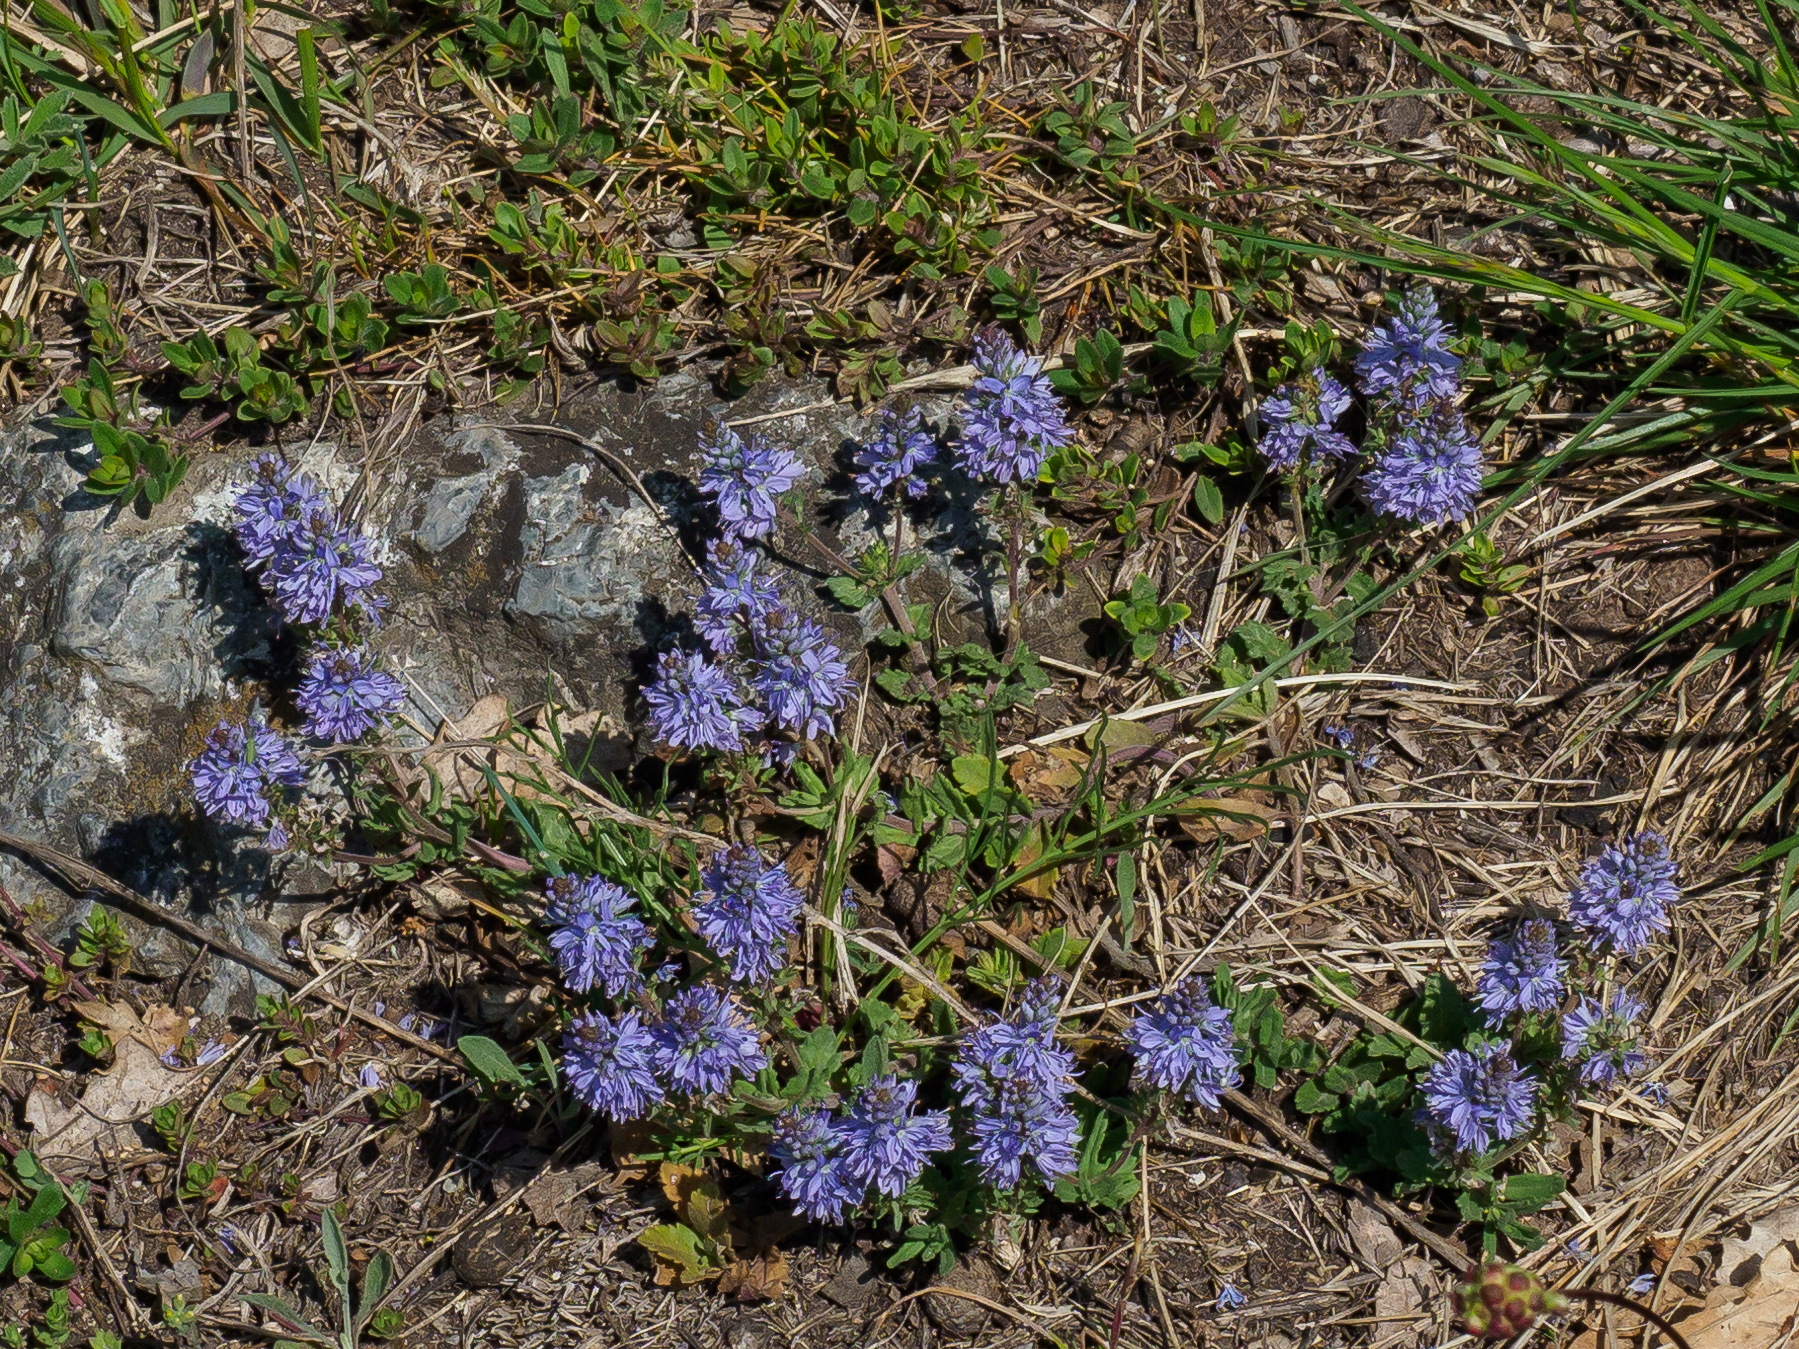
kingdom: Plantae
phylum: Tracheophyta
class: Magnoliopsida
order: Lamiales
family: Plantaginaceae
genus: Veronica
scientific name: Veronica prostrata
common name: Prostrate speedwell
